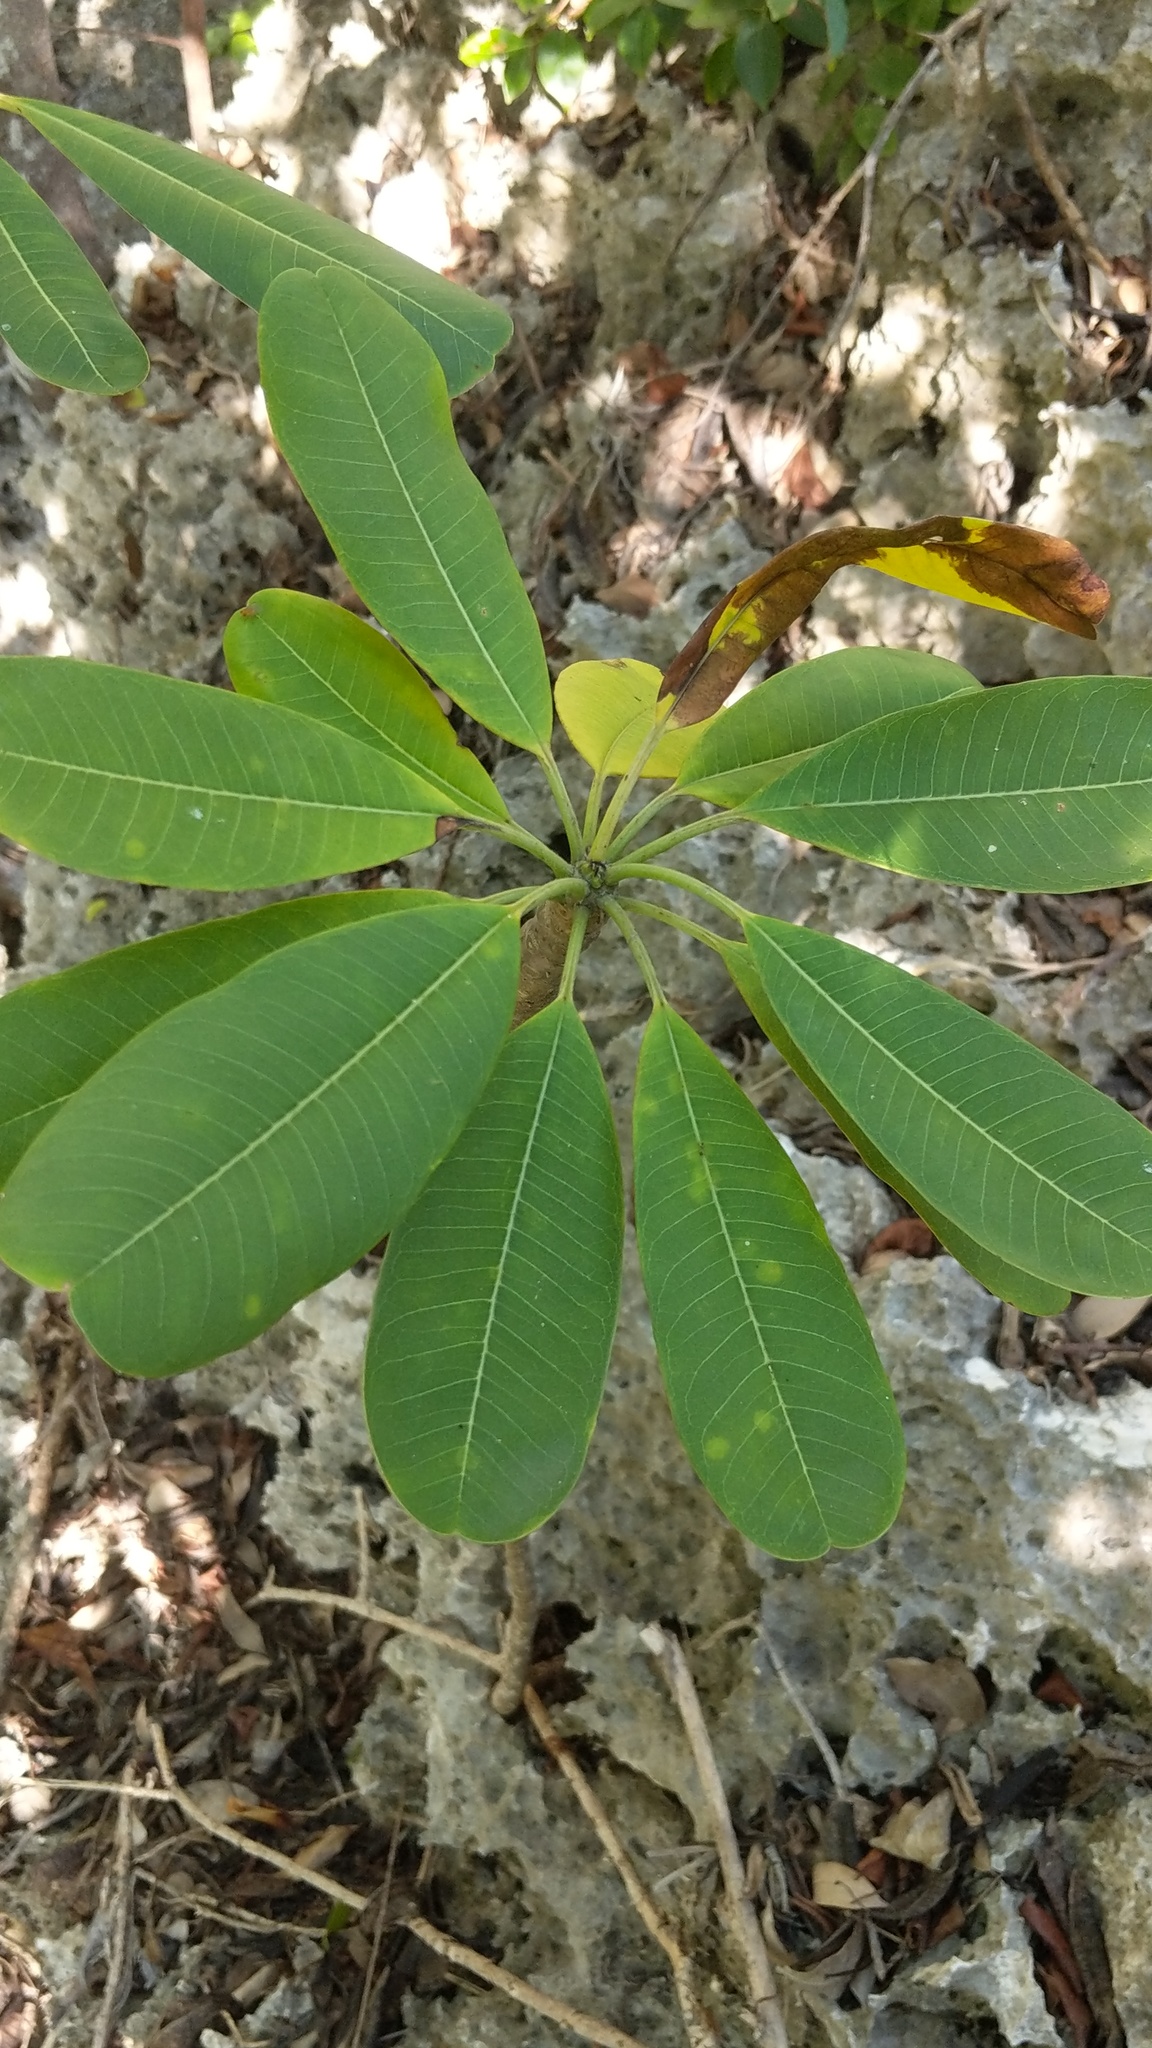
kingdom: Plantae
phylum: Tracheophyta
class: Magnoliopsida
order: Gentianales
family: Apocynaceae
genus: Plumeria
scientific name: Plumeria obtusa
